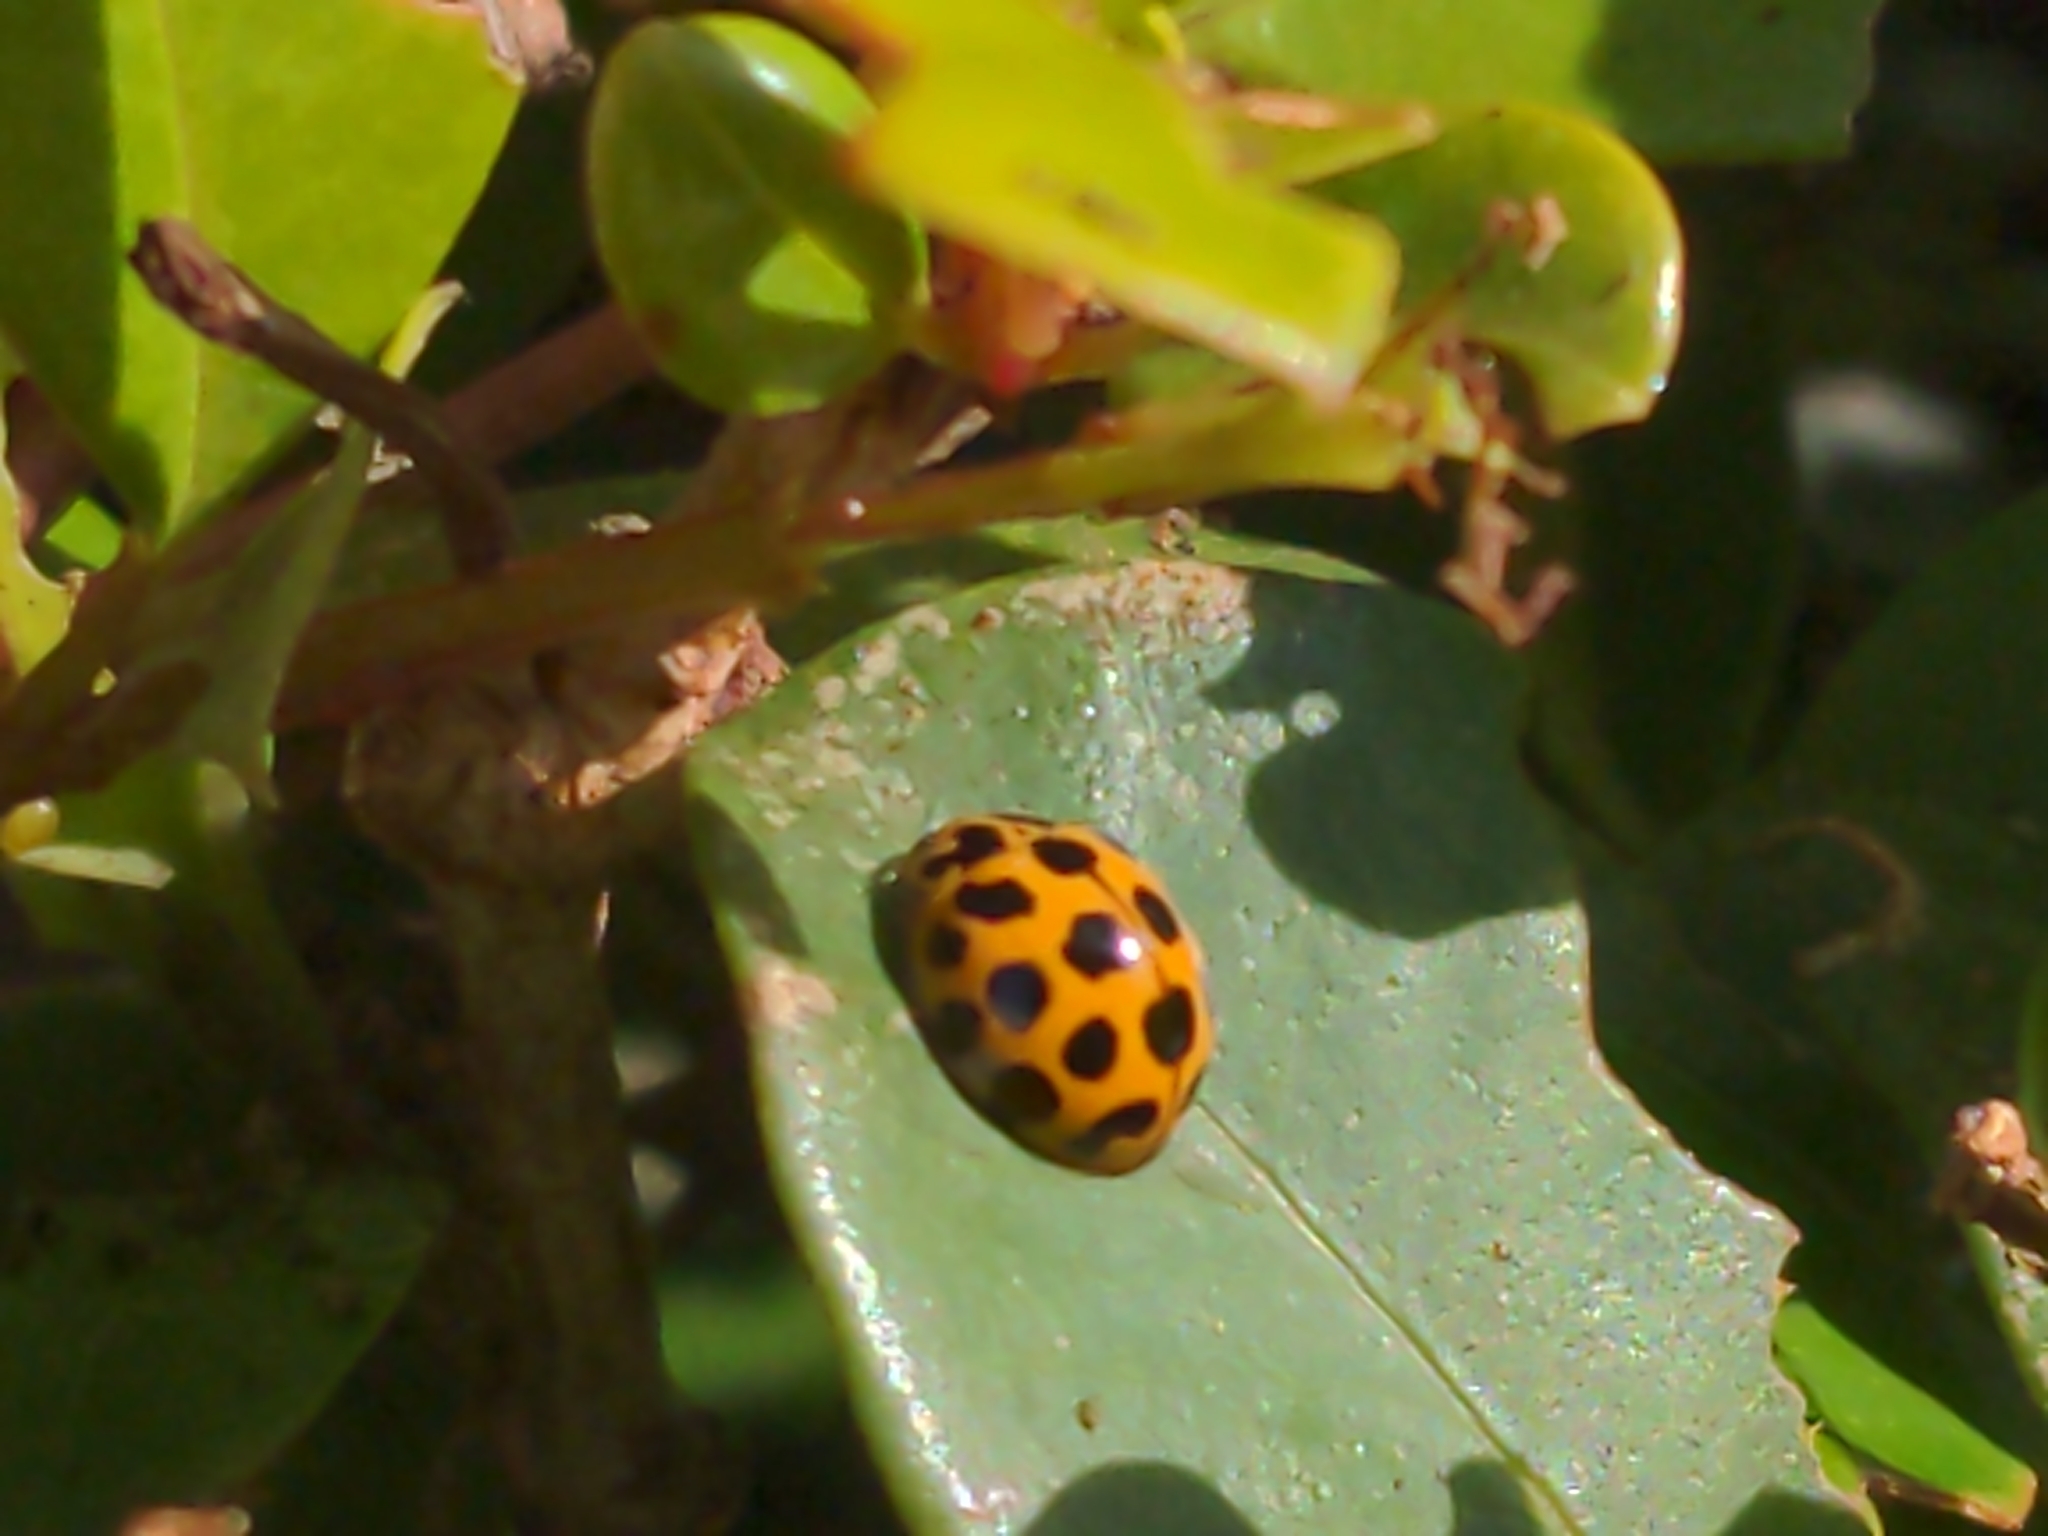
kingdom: Animalia
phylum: Arthropoda
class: Insecta
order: Coleoptera
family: Coccinellidae
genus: Harmonia
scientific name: Harmonia conformis
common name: Common spotted ladybird beetle
